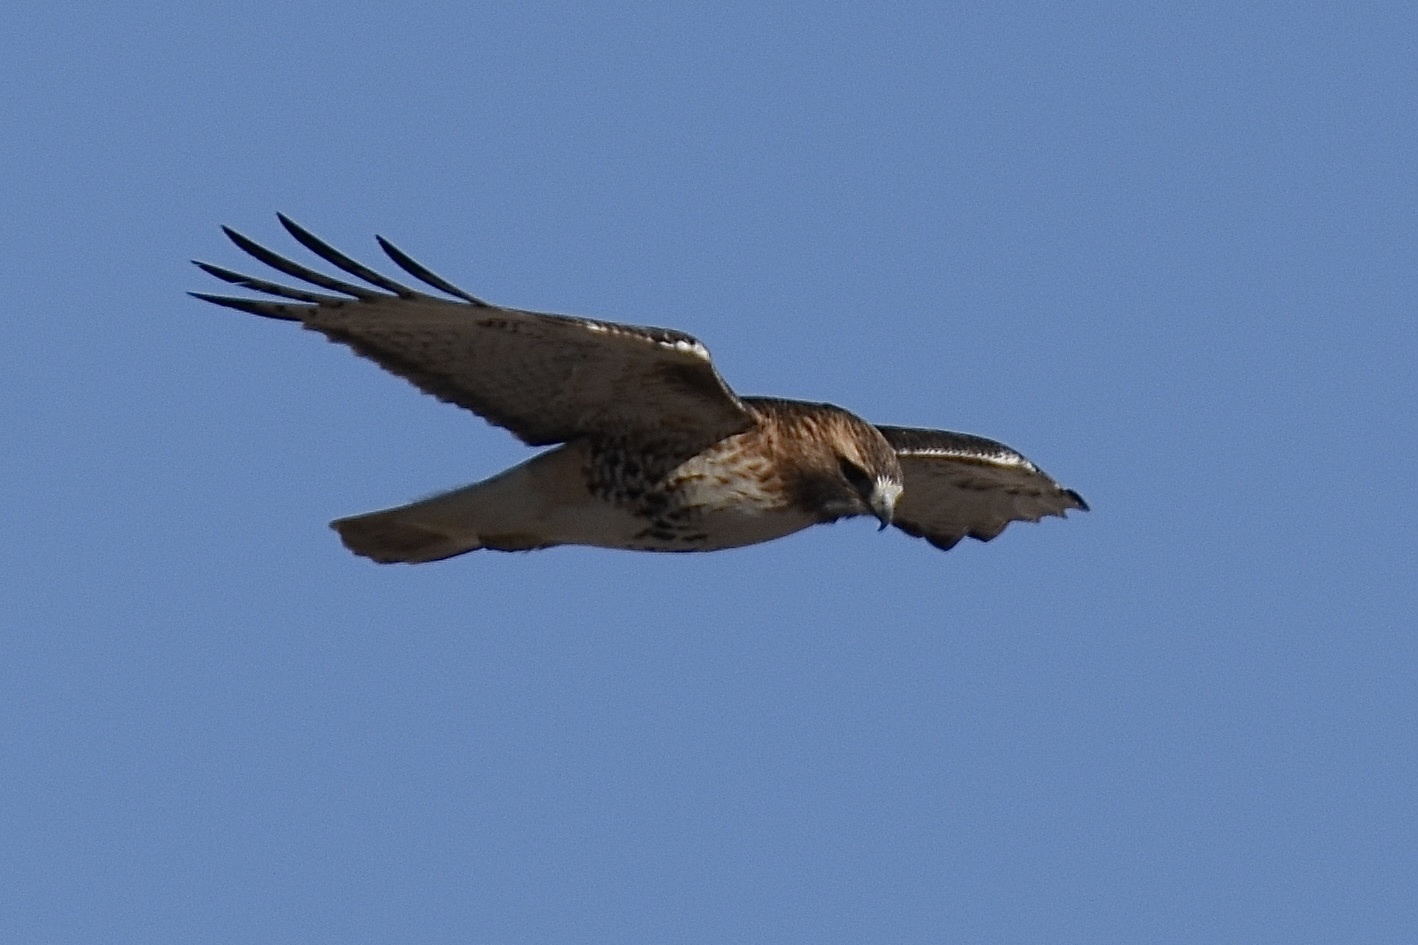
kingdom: Animalia
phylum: Chordata
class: Aves
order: Accipitriformes
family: Accipitridae
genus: Buteo
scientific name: Buteo jamaicensis
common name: Red-tailed hawk
